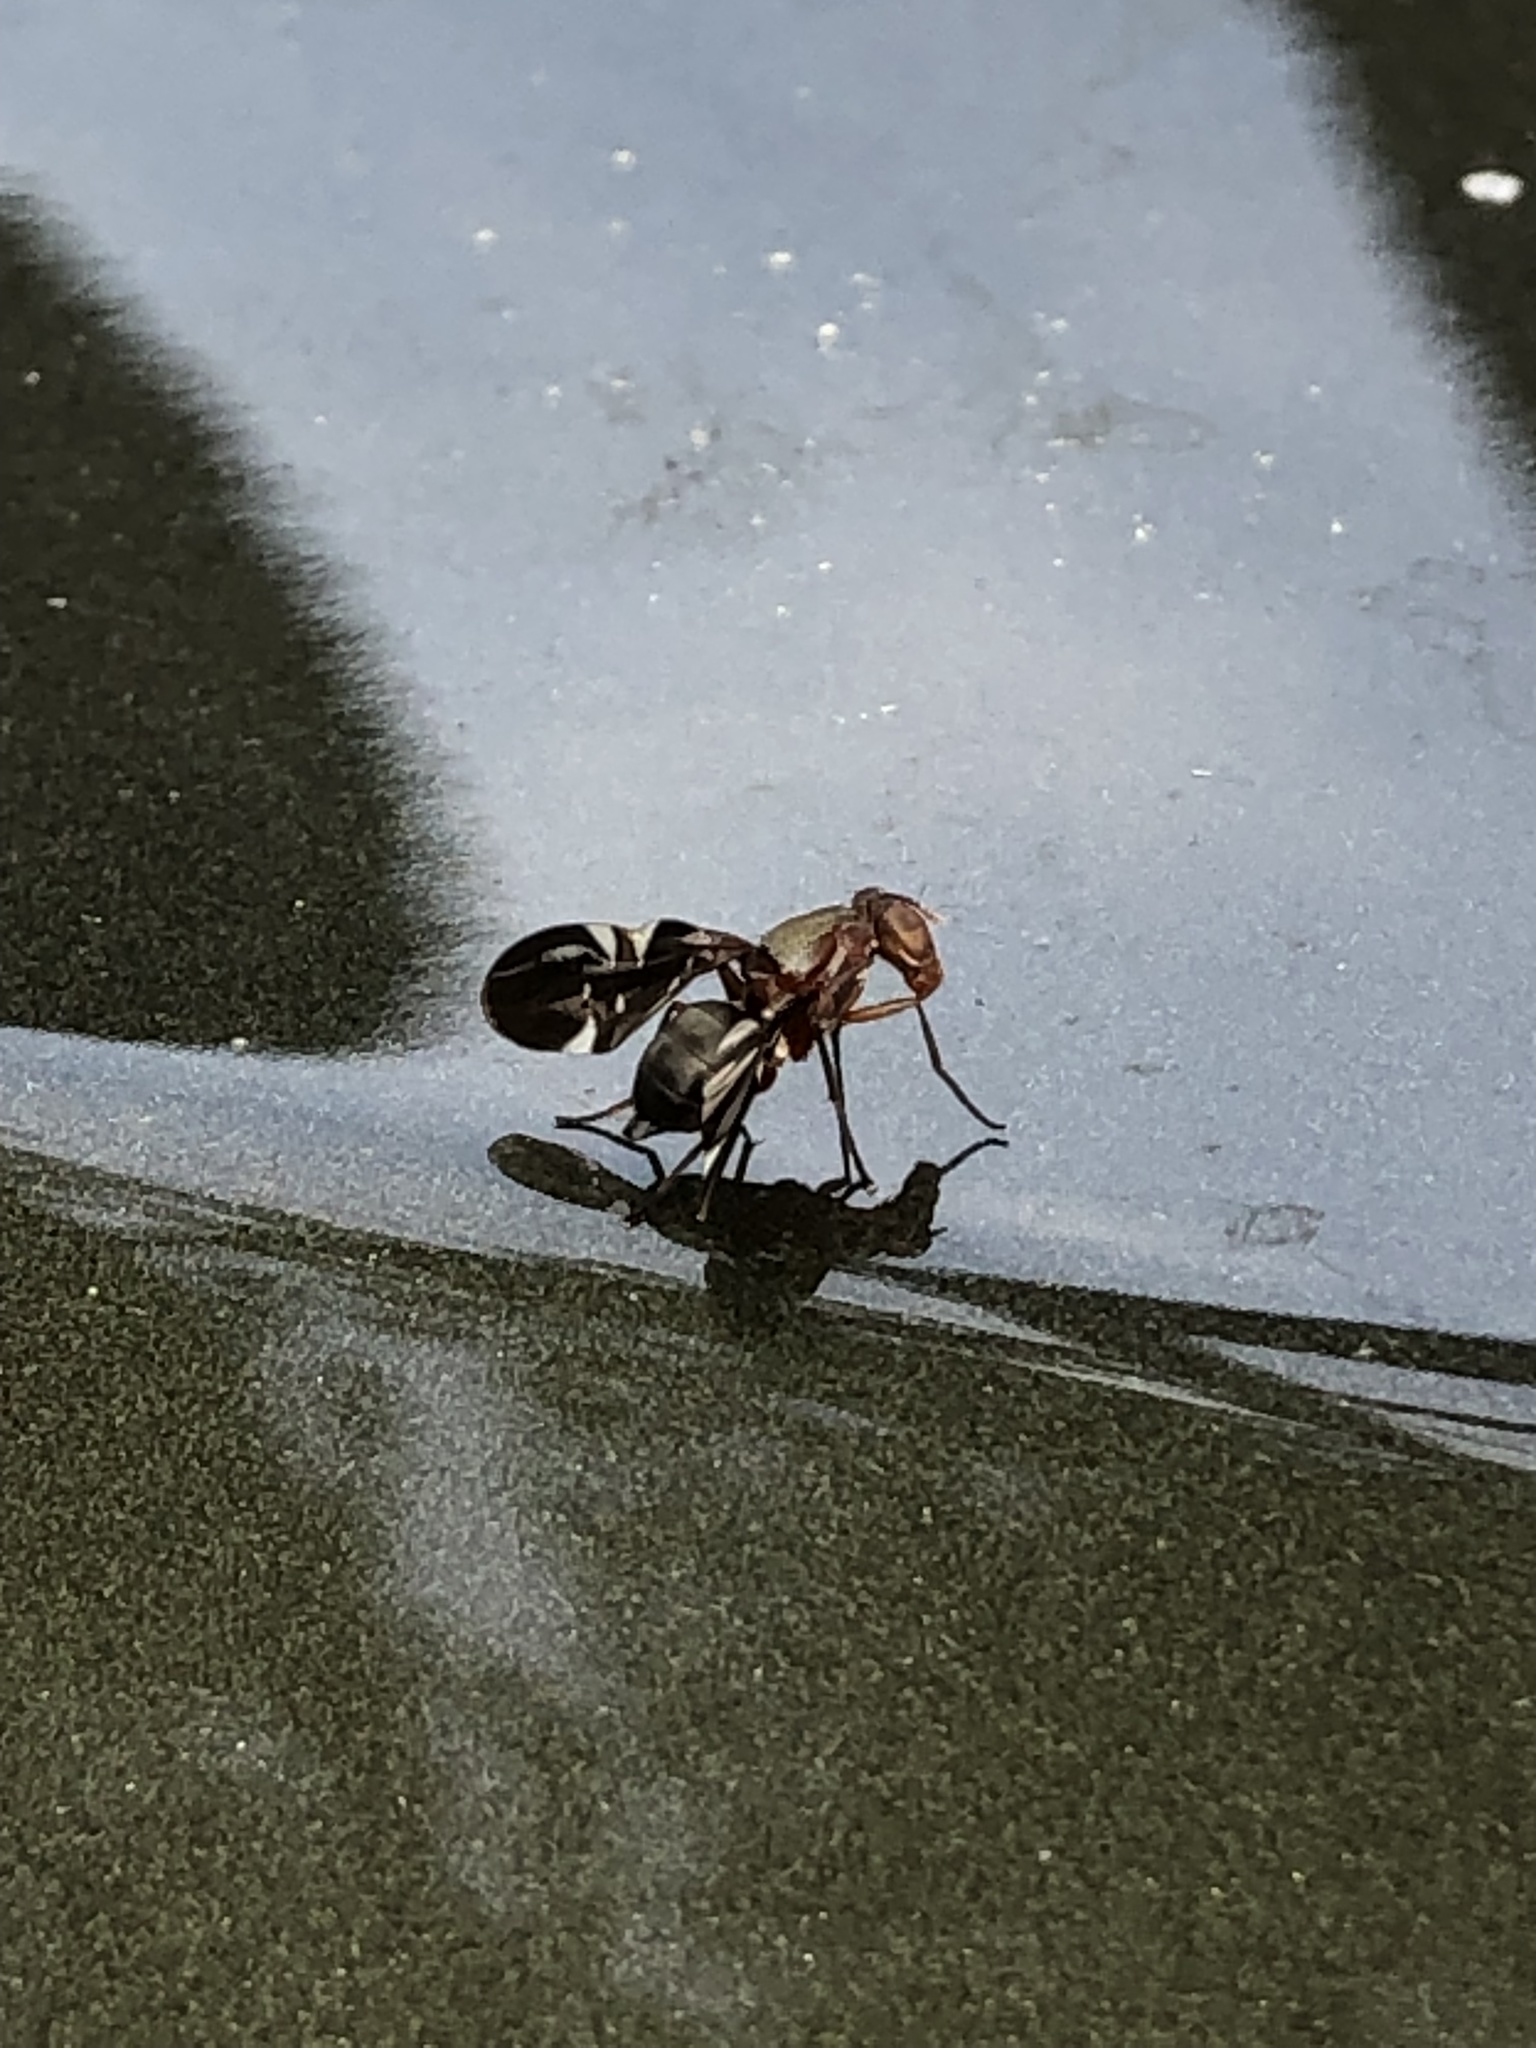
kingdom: Animalia
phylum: Arthropoda
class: Insecta
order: Diptera
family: Ulidiidae
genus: Delphinia
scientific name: Delphinia picta
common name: Common picture-winged fly
